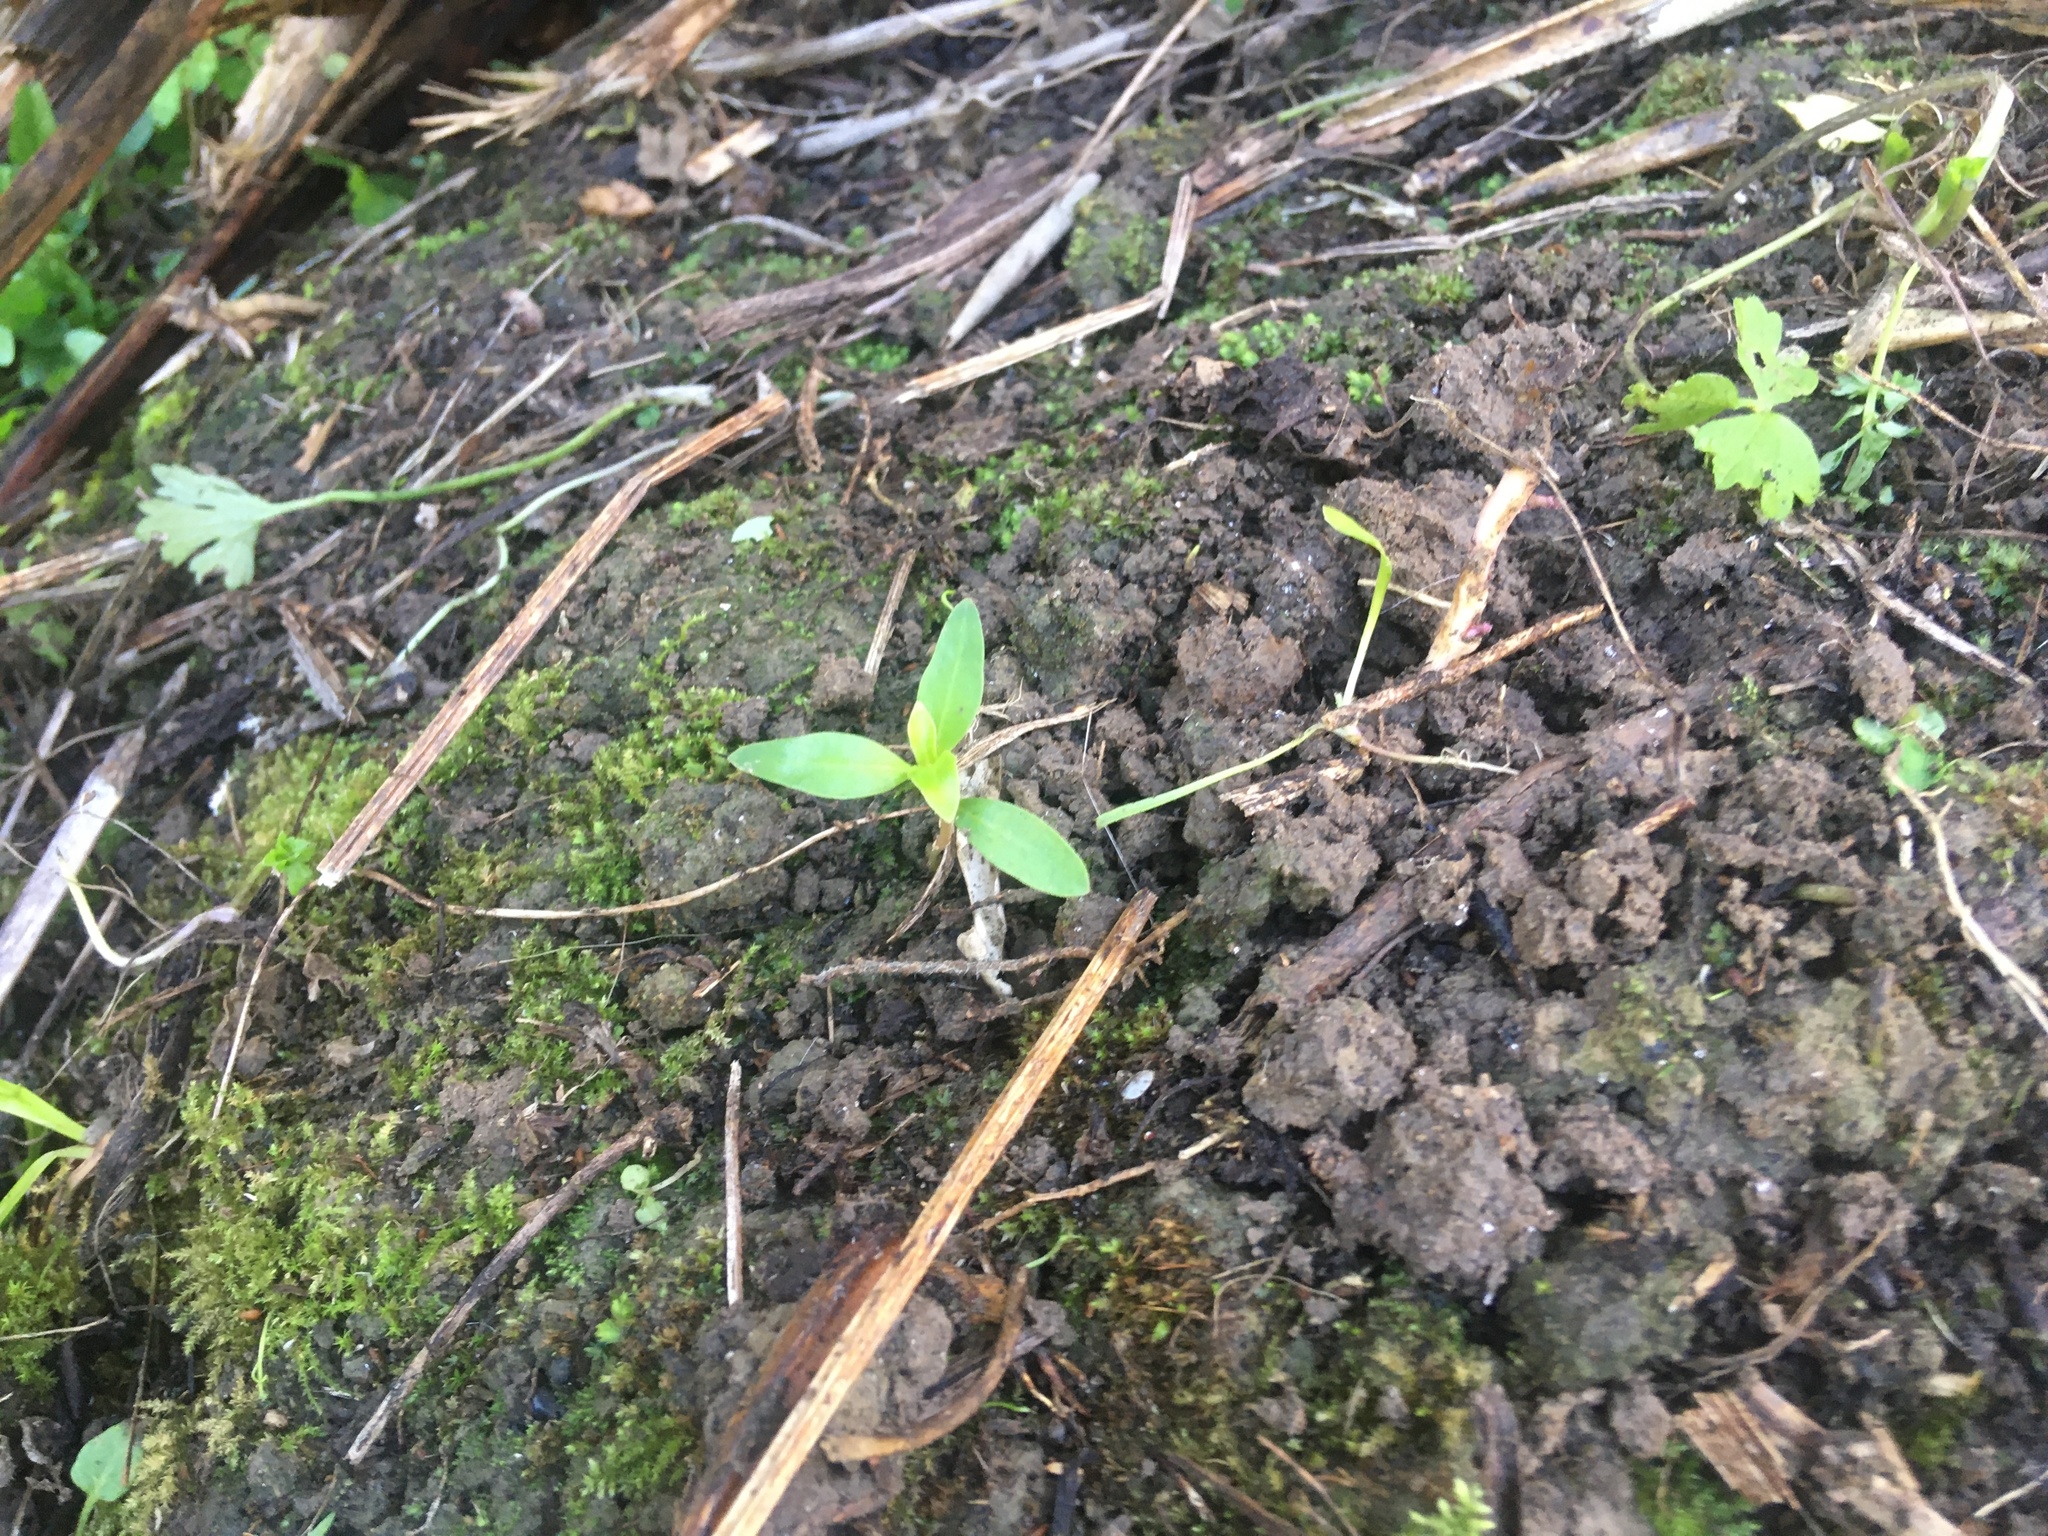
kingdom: Plantae
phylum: Tracheophyta
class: Magnoliopsida
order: Gentianales
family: Rubiaceae
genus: Coprosma
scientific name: Coprosma robusta
